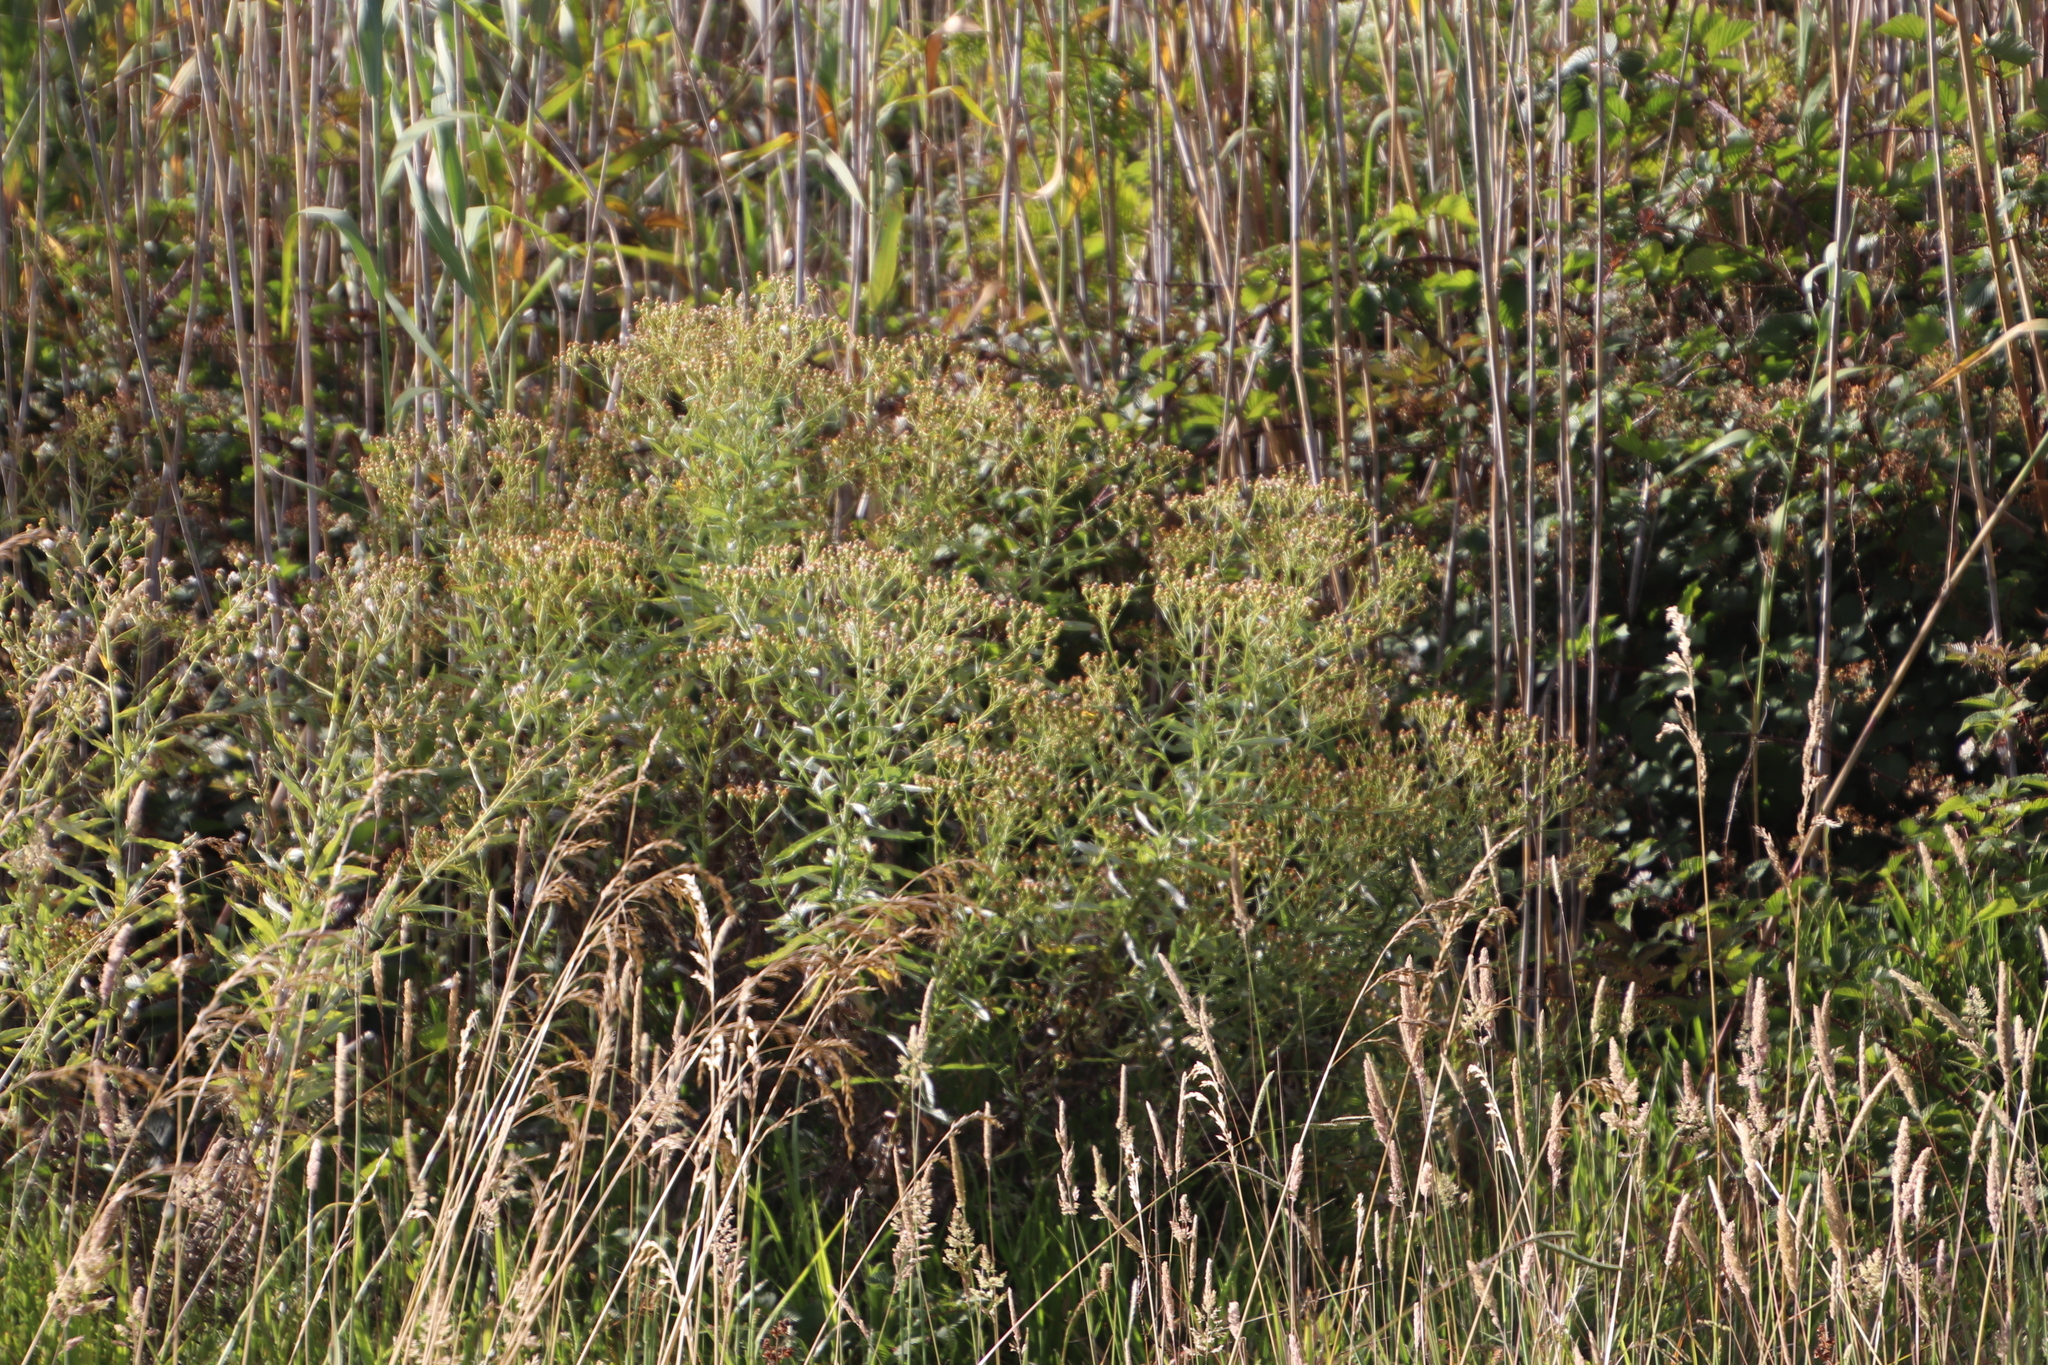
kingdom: Plantae
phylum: Tracheophyta
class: Magnoliopsida
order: Asterales
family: Asteraceae
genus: Senecio
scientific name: Senecio pterophorus
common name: Shoddy ragwort
